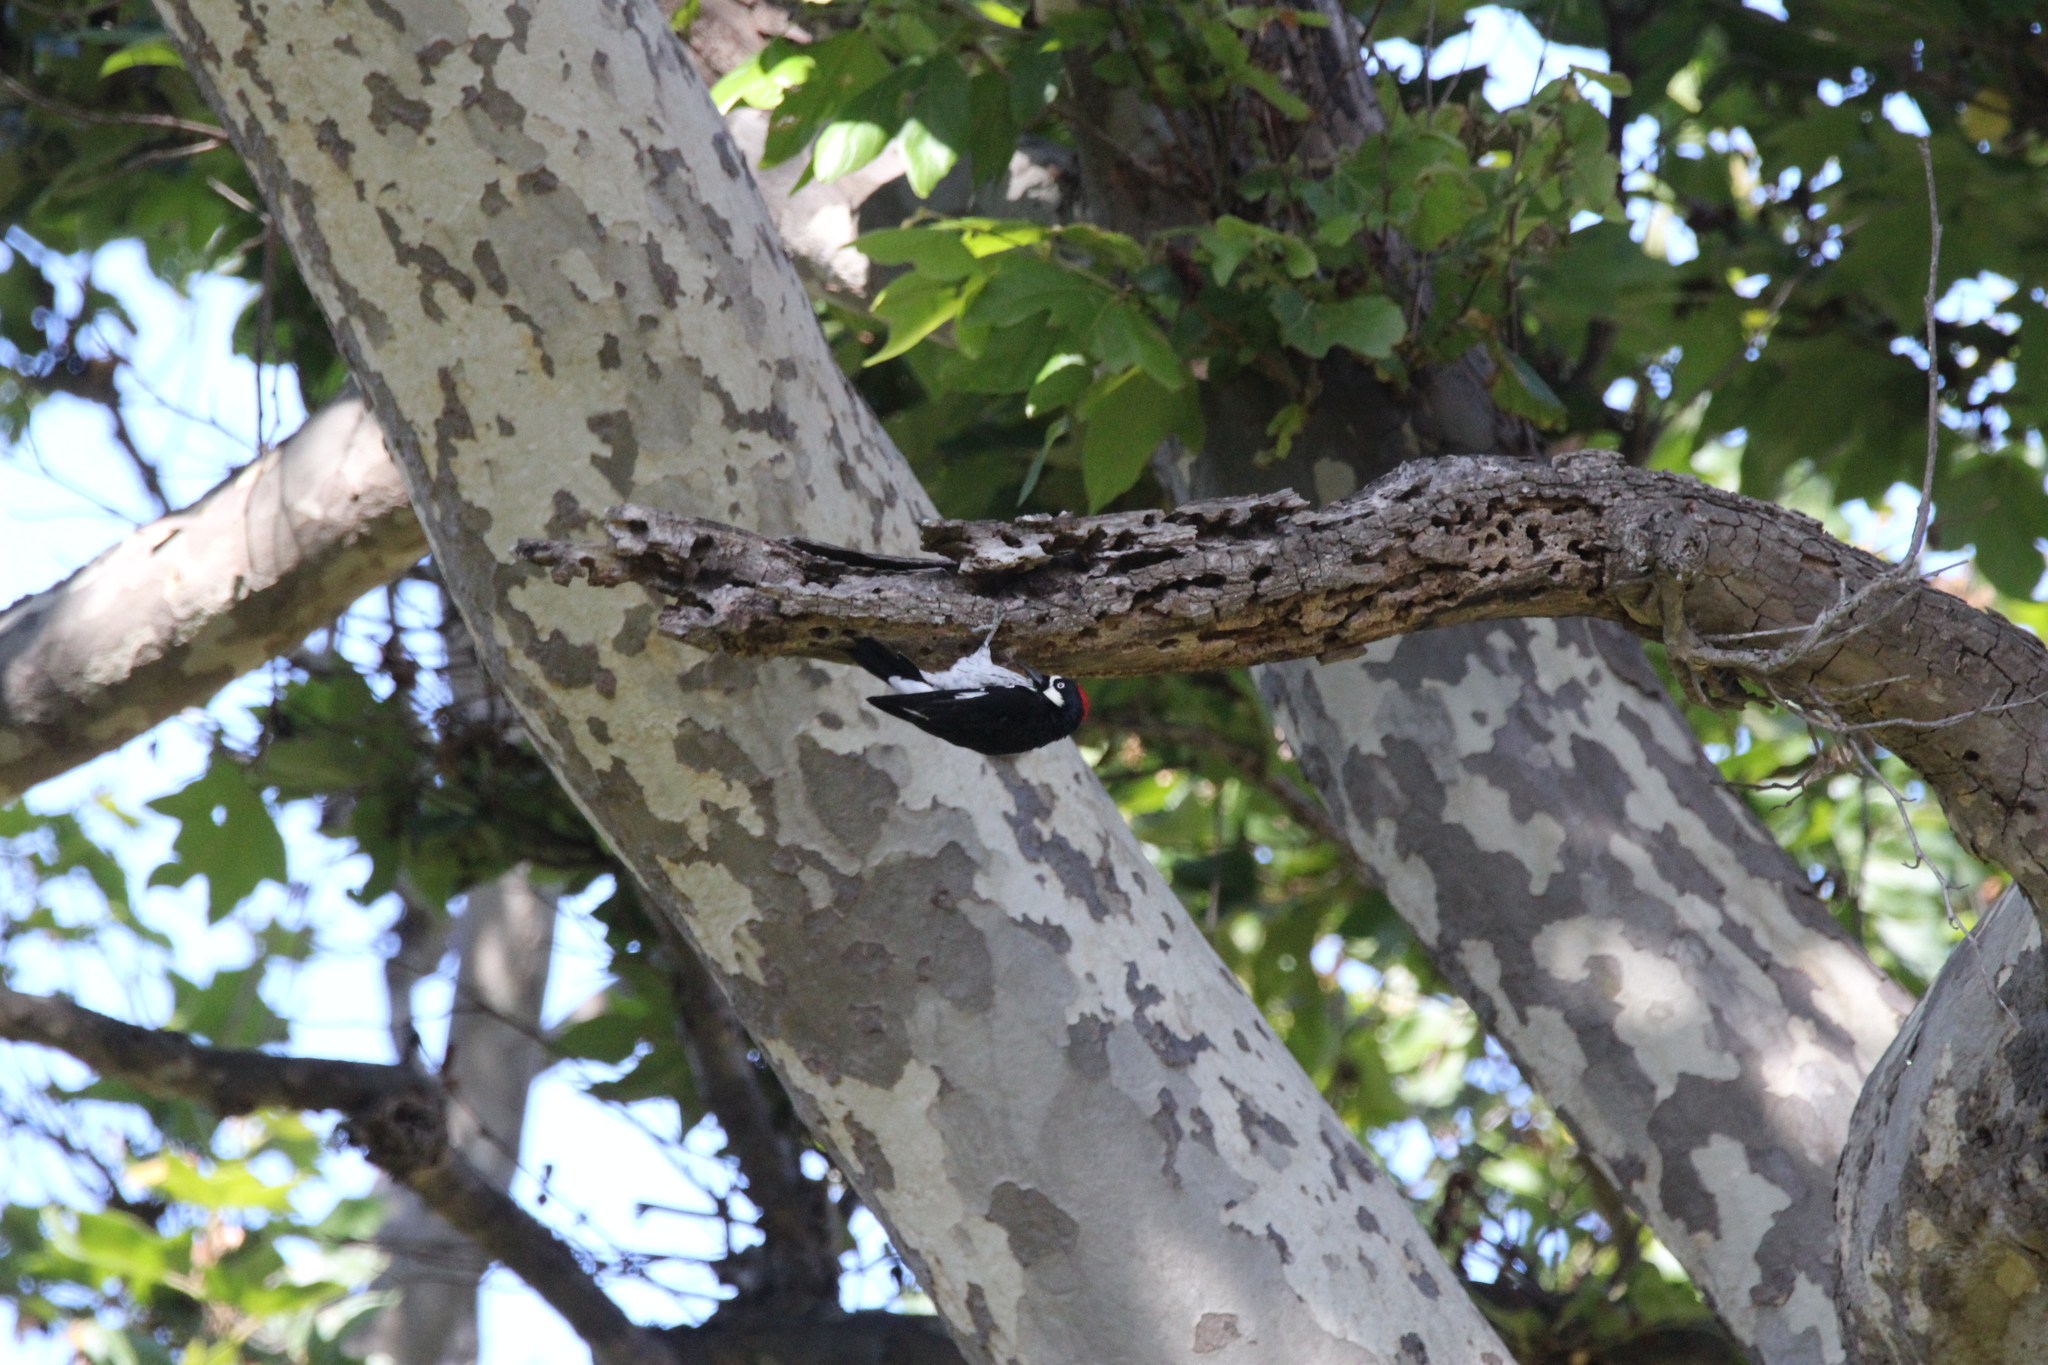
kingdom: Animalia
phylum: Chordata
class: Aves
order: Piciformes
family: Picidae
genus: Melanerpes
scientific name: Melanerpes formicivorus
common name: Acorn woodpecker
